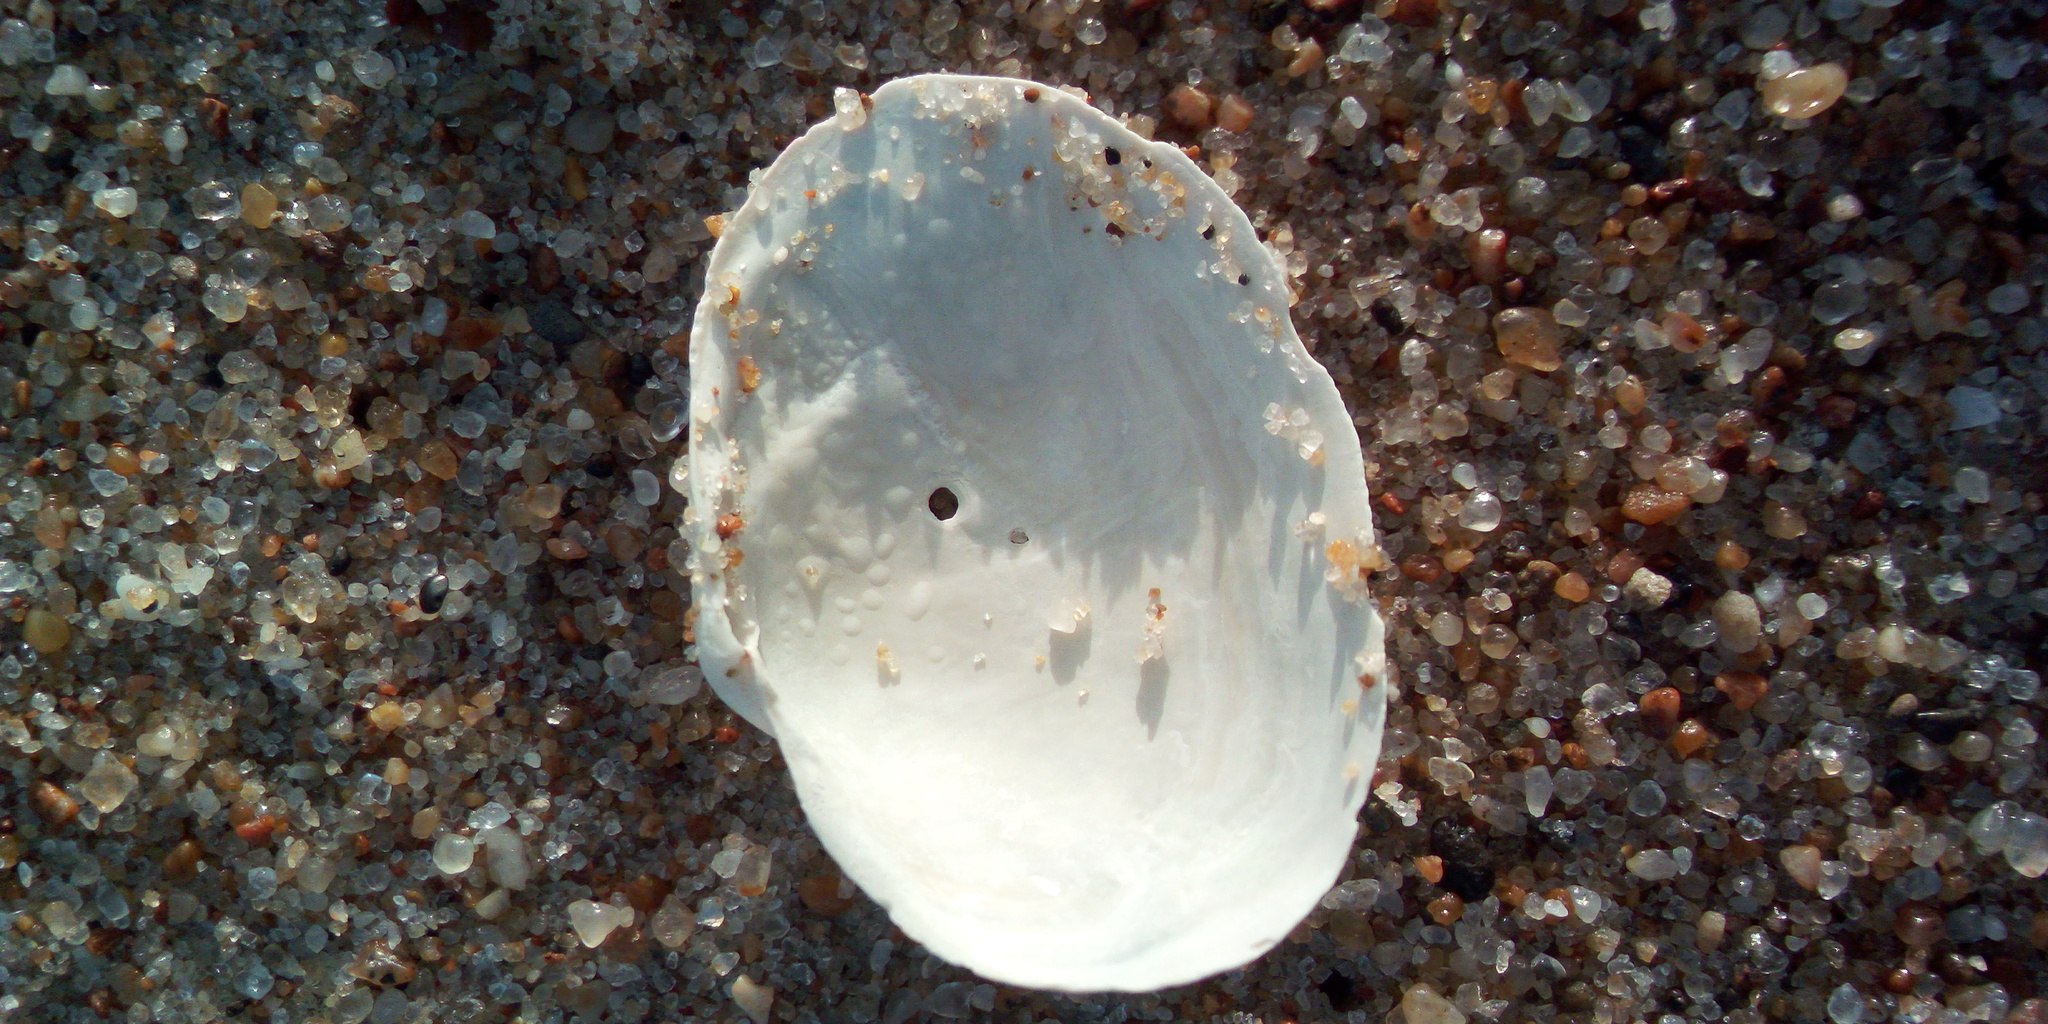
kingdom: Animalia
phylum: Mollusca
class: Bivalvia
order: Myida
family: Myidae
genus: Mya
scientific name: Mya arenaria
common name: Soft-shelled clam
